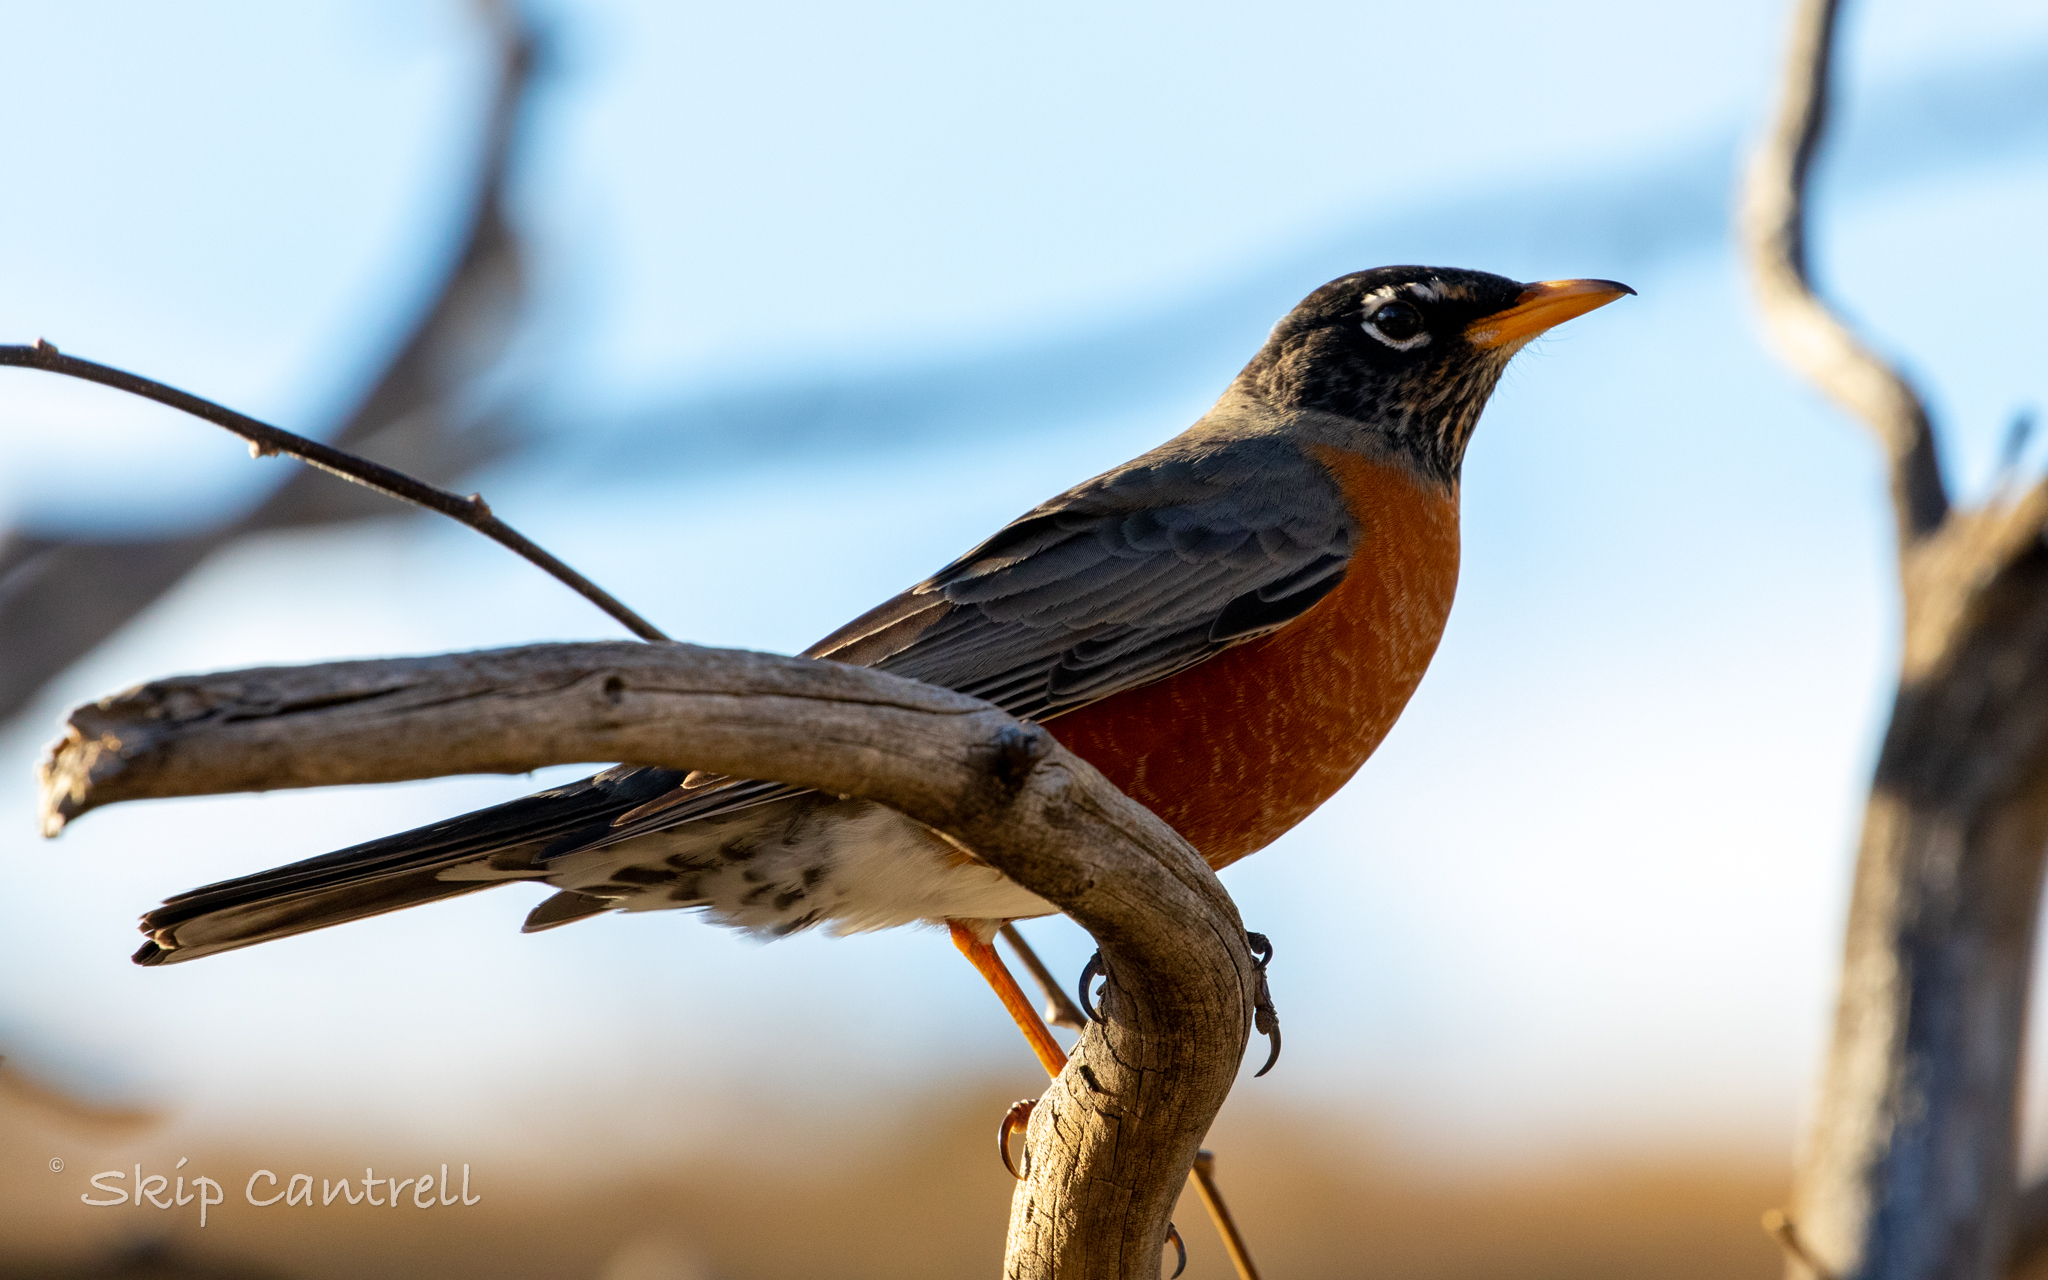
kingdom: Animalia
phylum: Chordata
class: Aves
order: Passeriformes
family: Turdidae
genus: Turdus
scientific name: Turdus migratorius
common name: American robin
